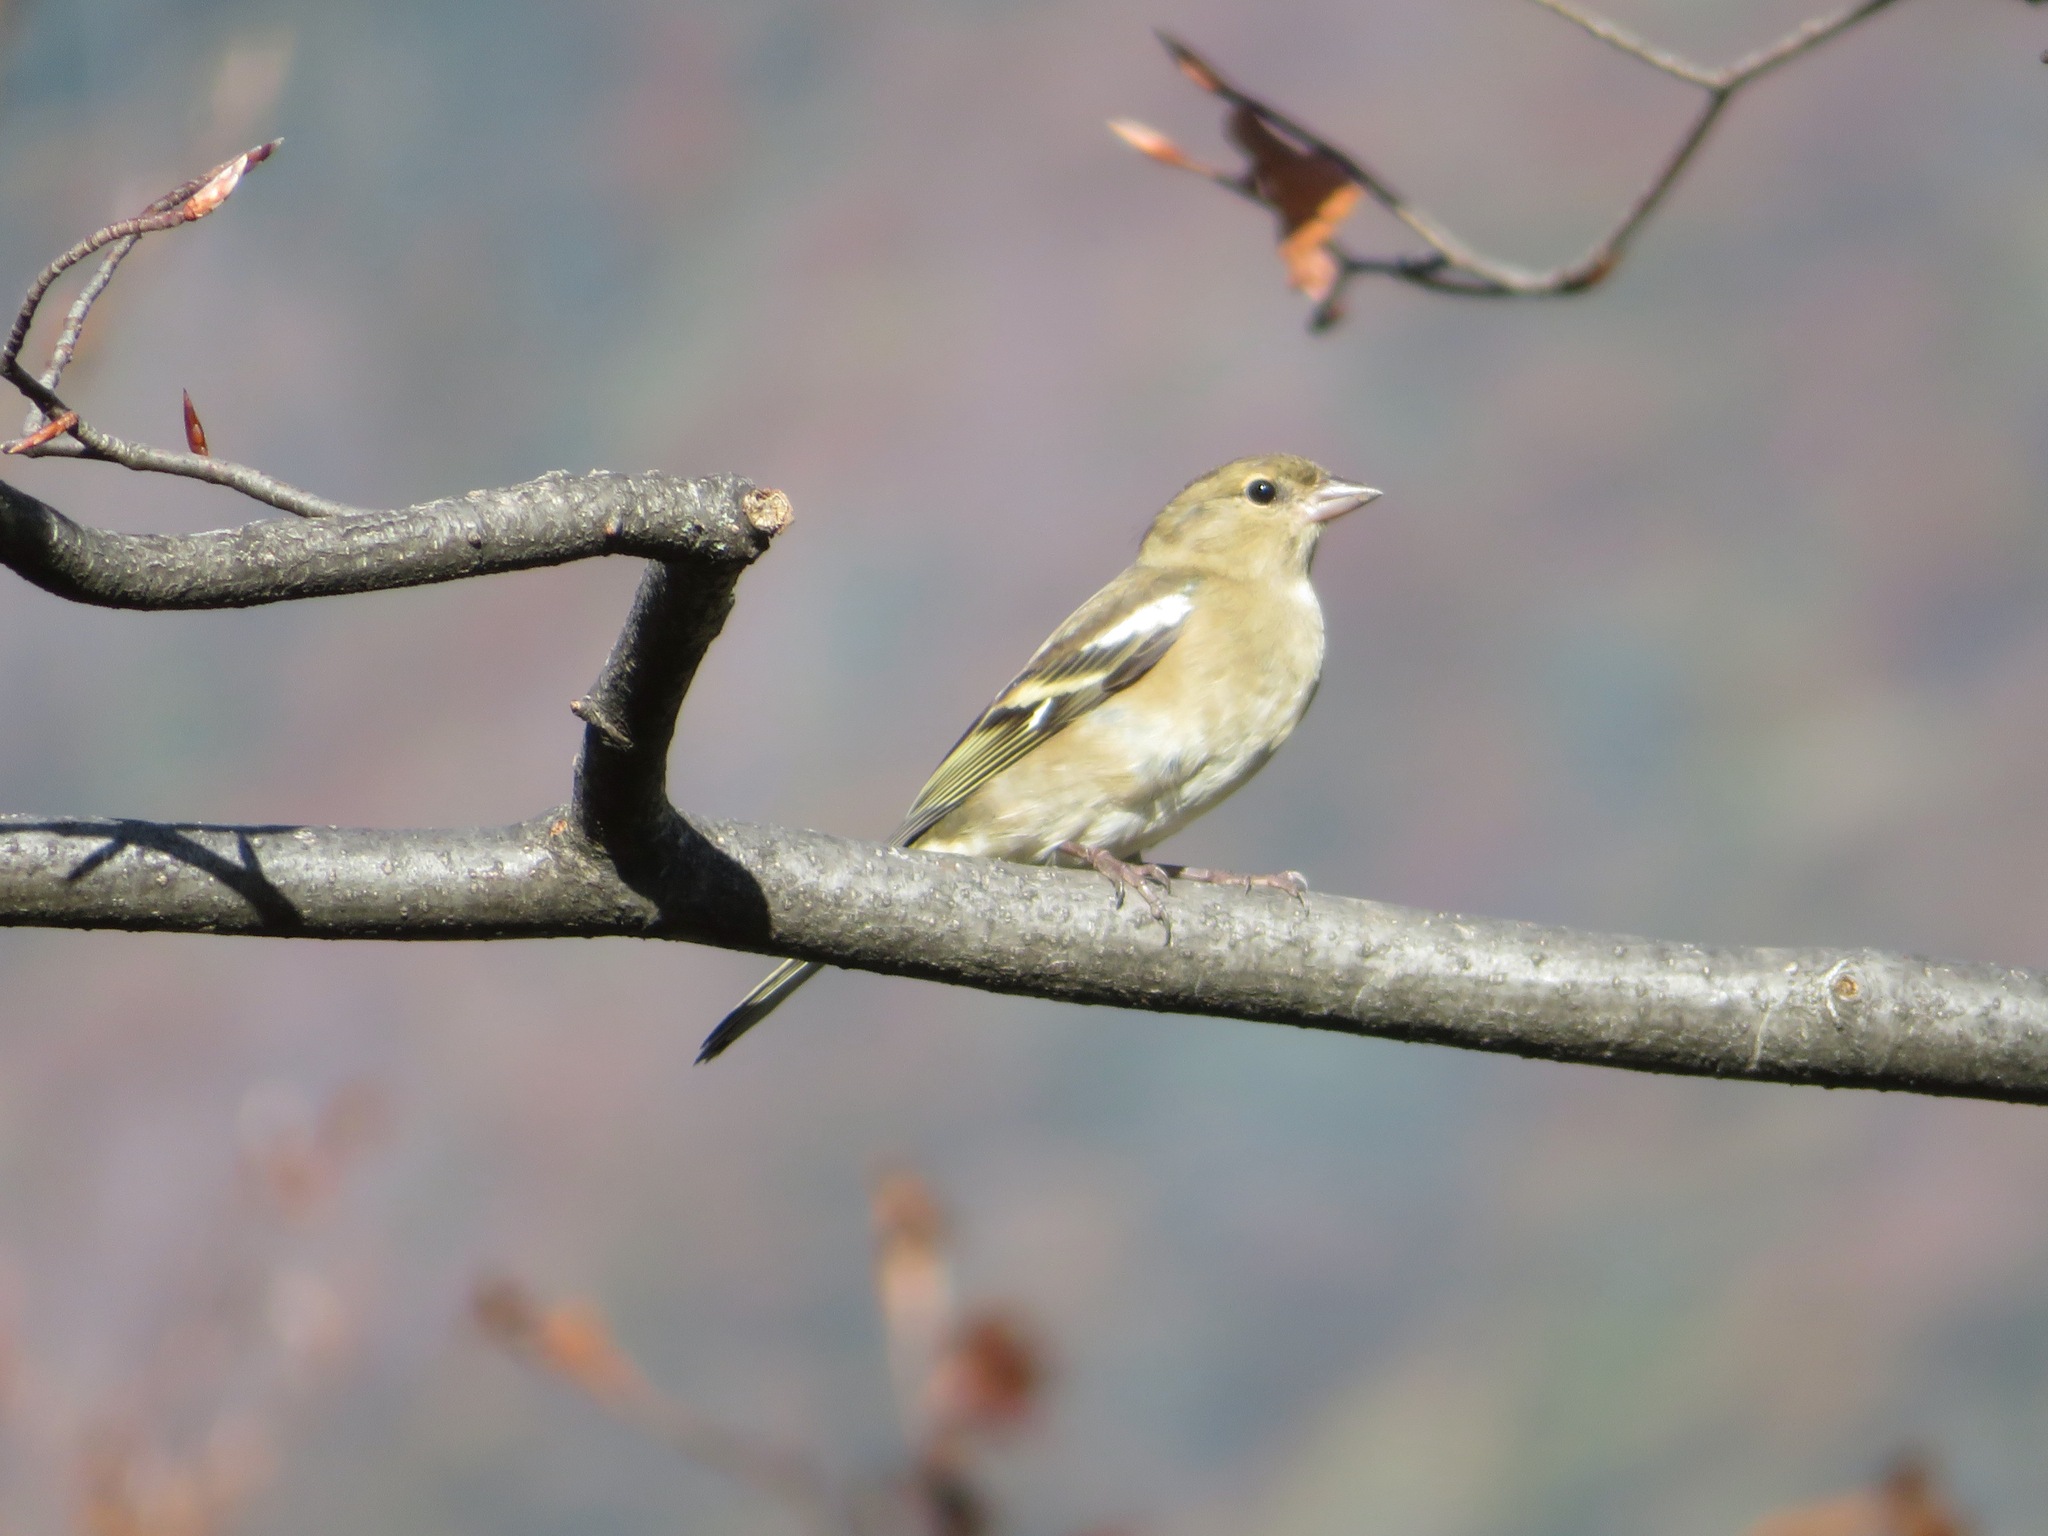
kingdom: Animalia
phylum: Chordata
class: Aves
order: Passeriformes
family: Fringillidae
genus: Fringilla
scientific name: Fringilla coelebs
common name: Common chaffinch
